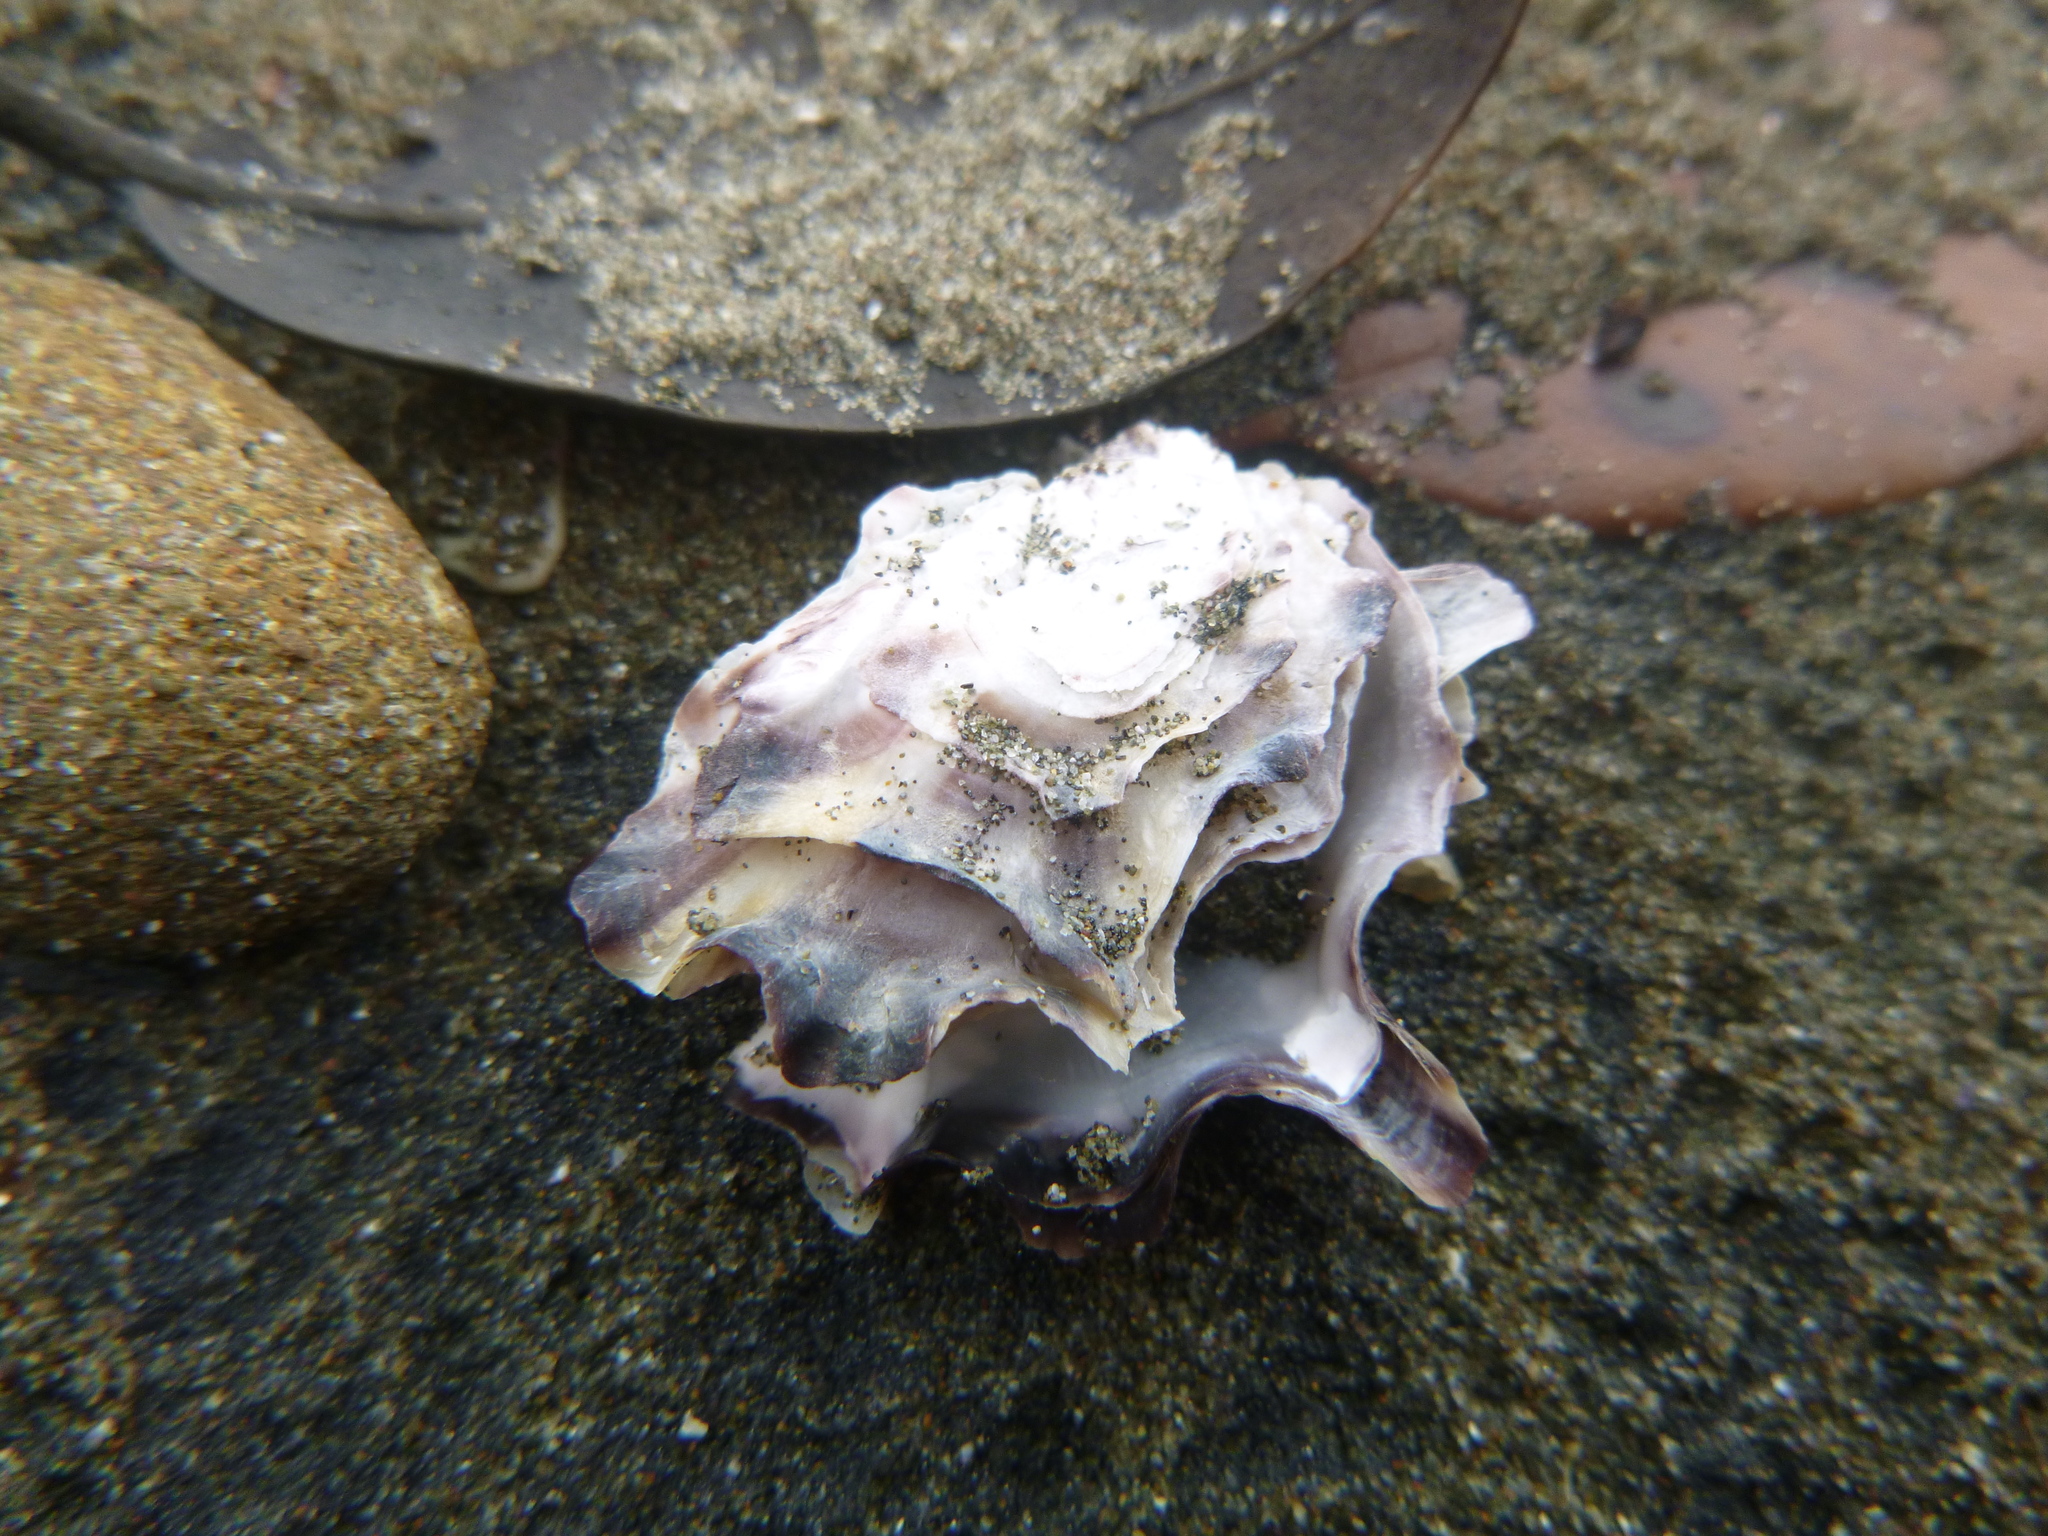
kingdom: Animalia
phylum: Mollusca
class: Bivalvia
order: Ostreida
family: Ostreidae
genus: Magallana
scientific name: Magallana gigas
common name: Pacific oyster
